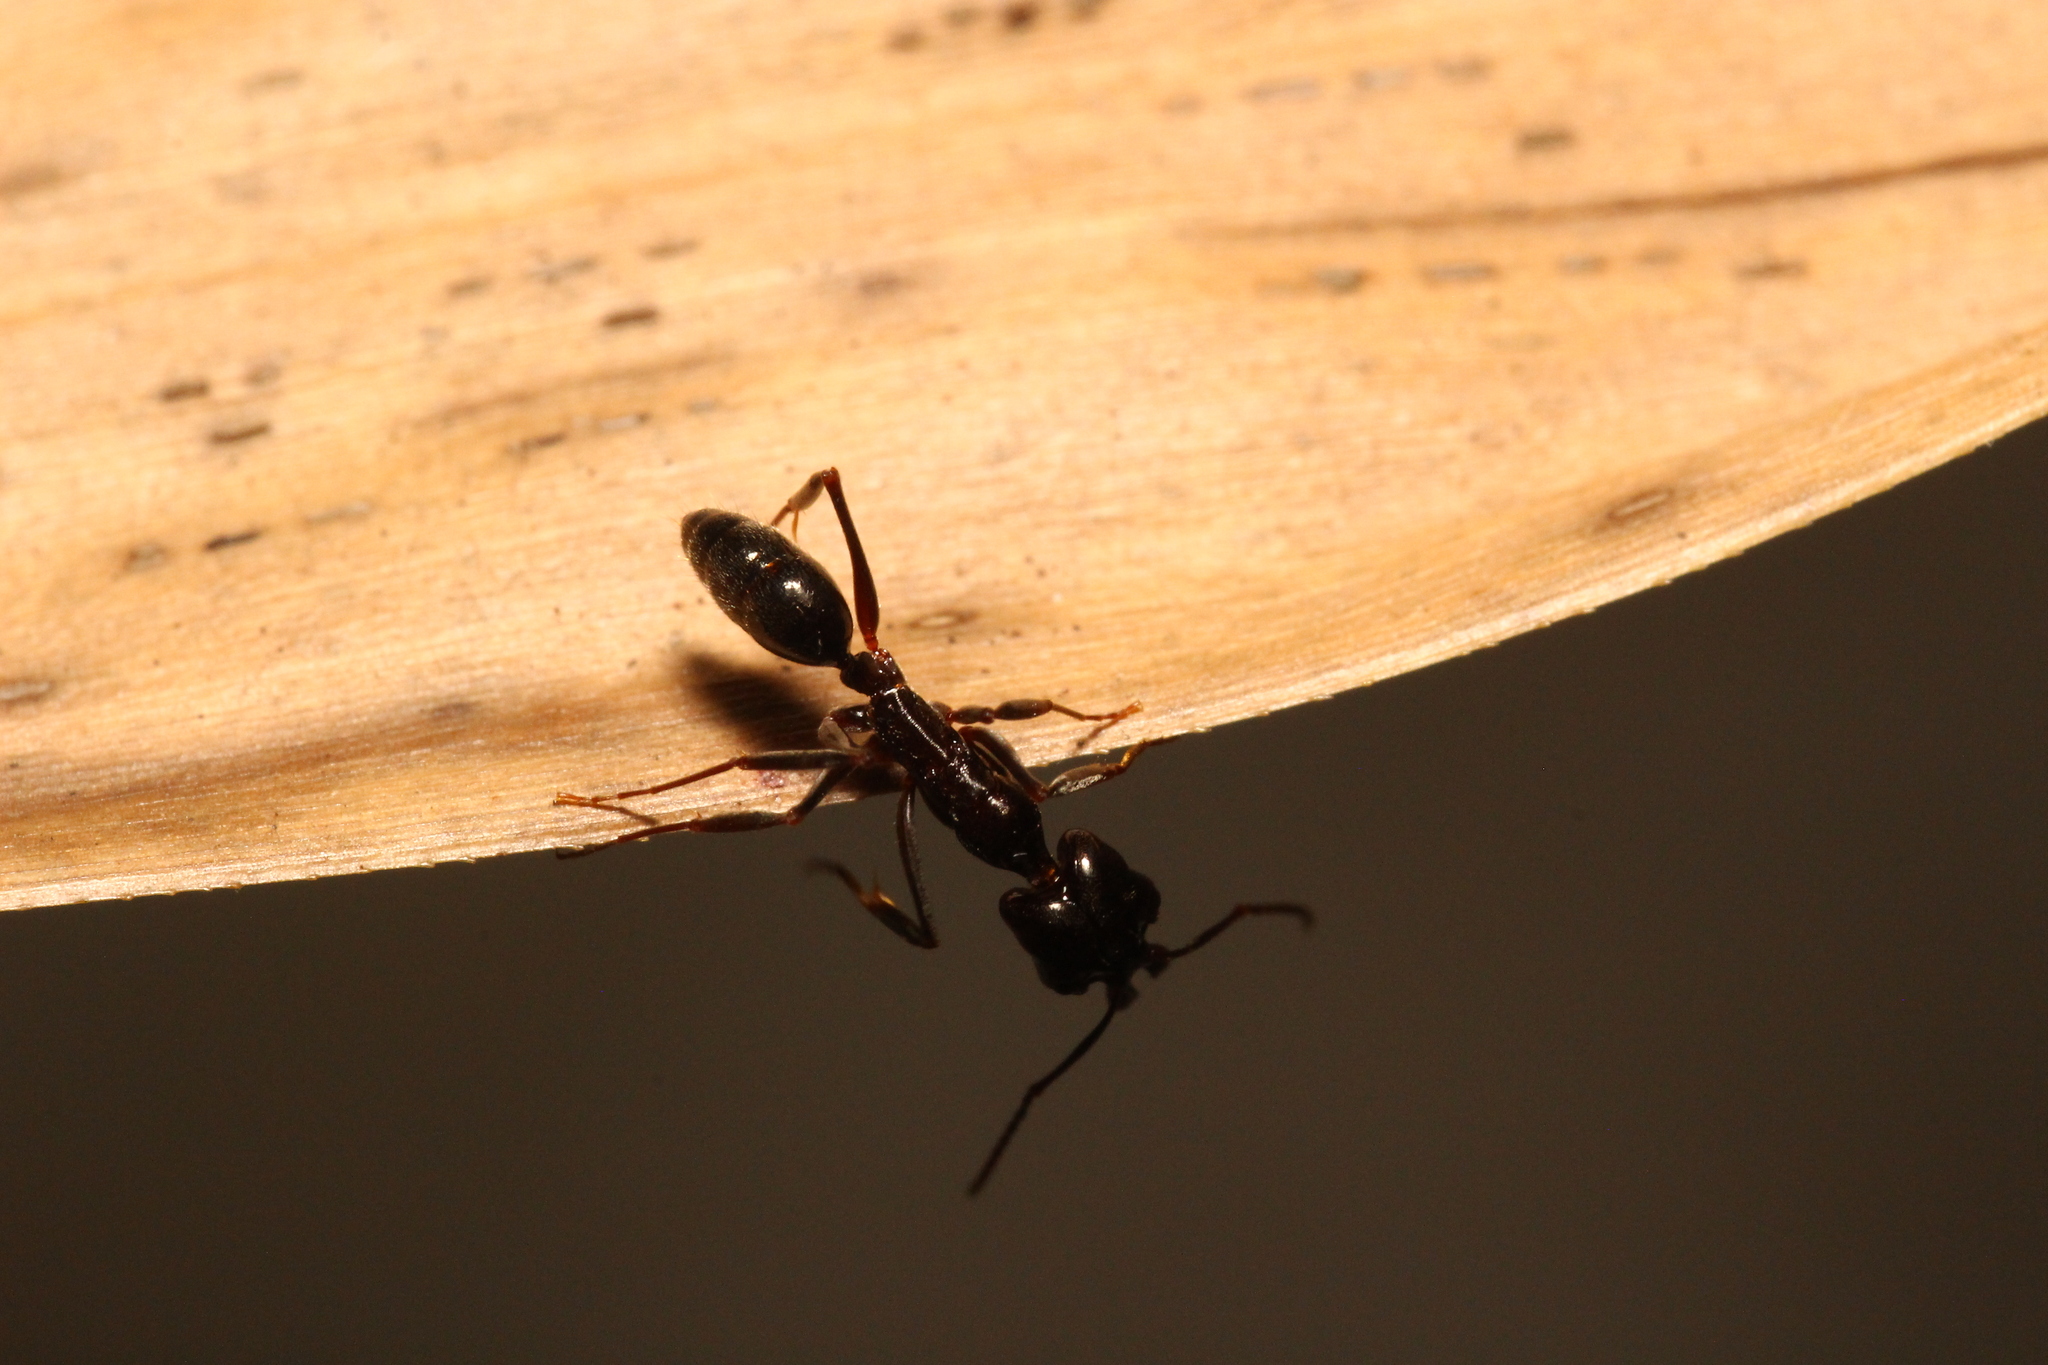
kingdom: Animalia
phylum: Arthropoda
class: Insecta
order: Hymenoptera
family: Formicidae
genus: Odontomachus
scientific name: Odontomachus simillimus
